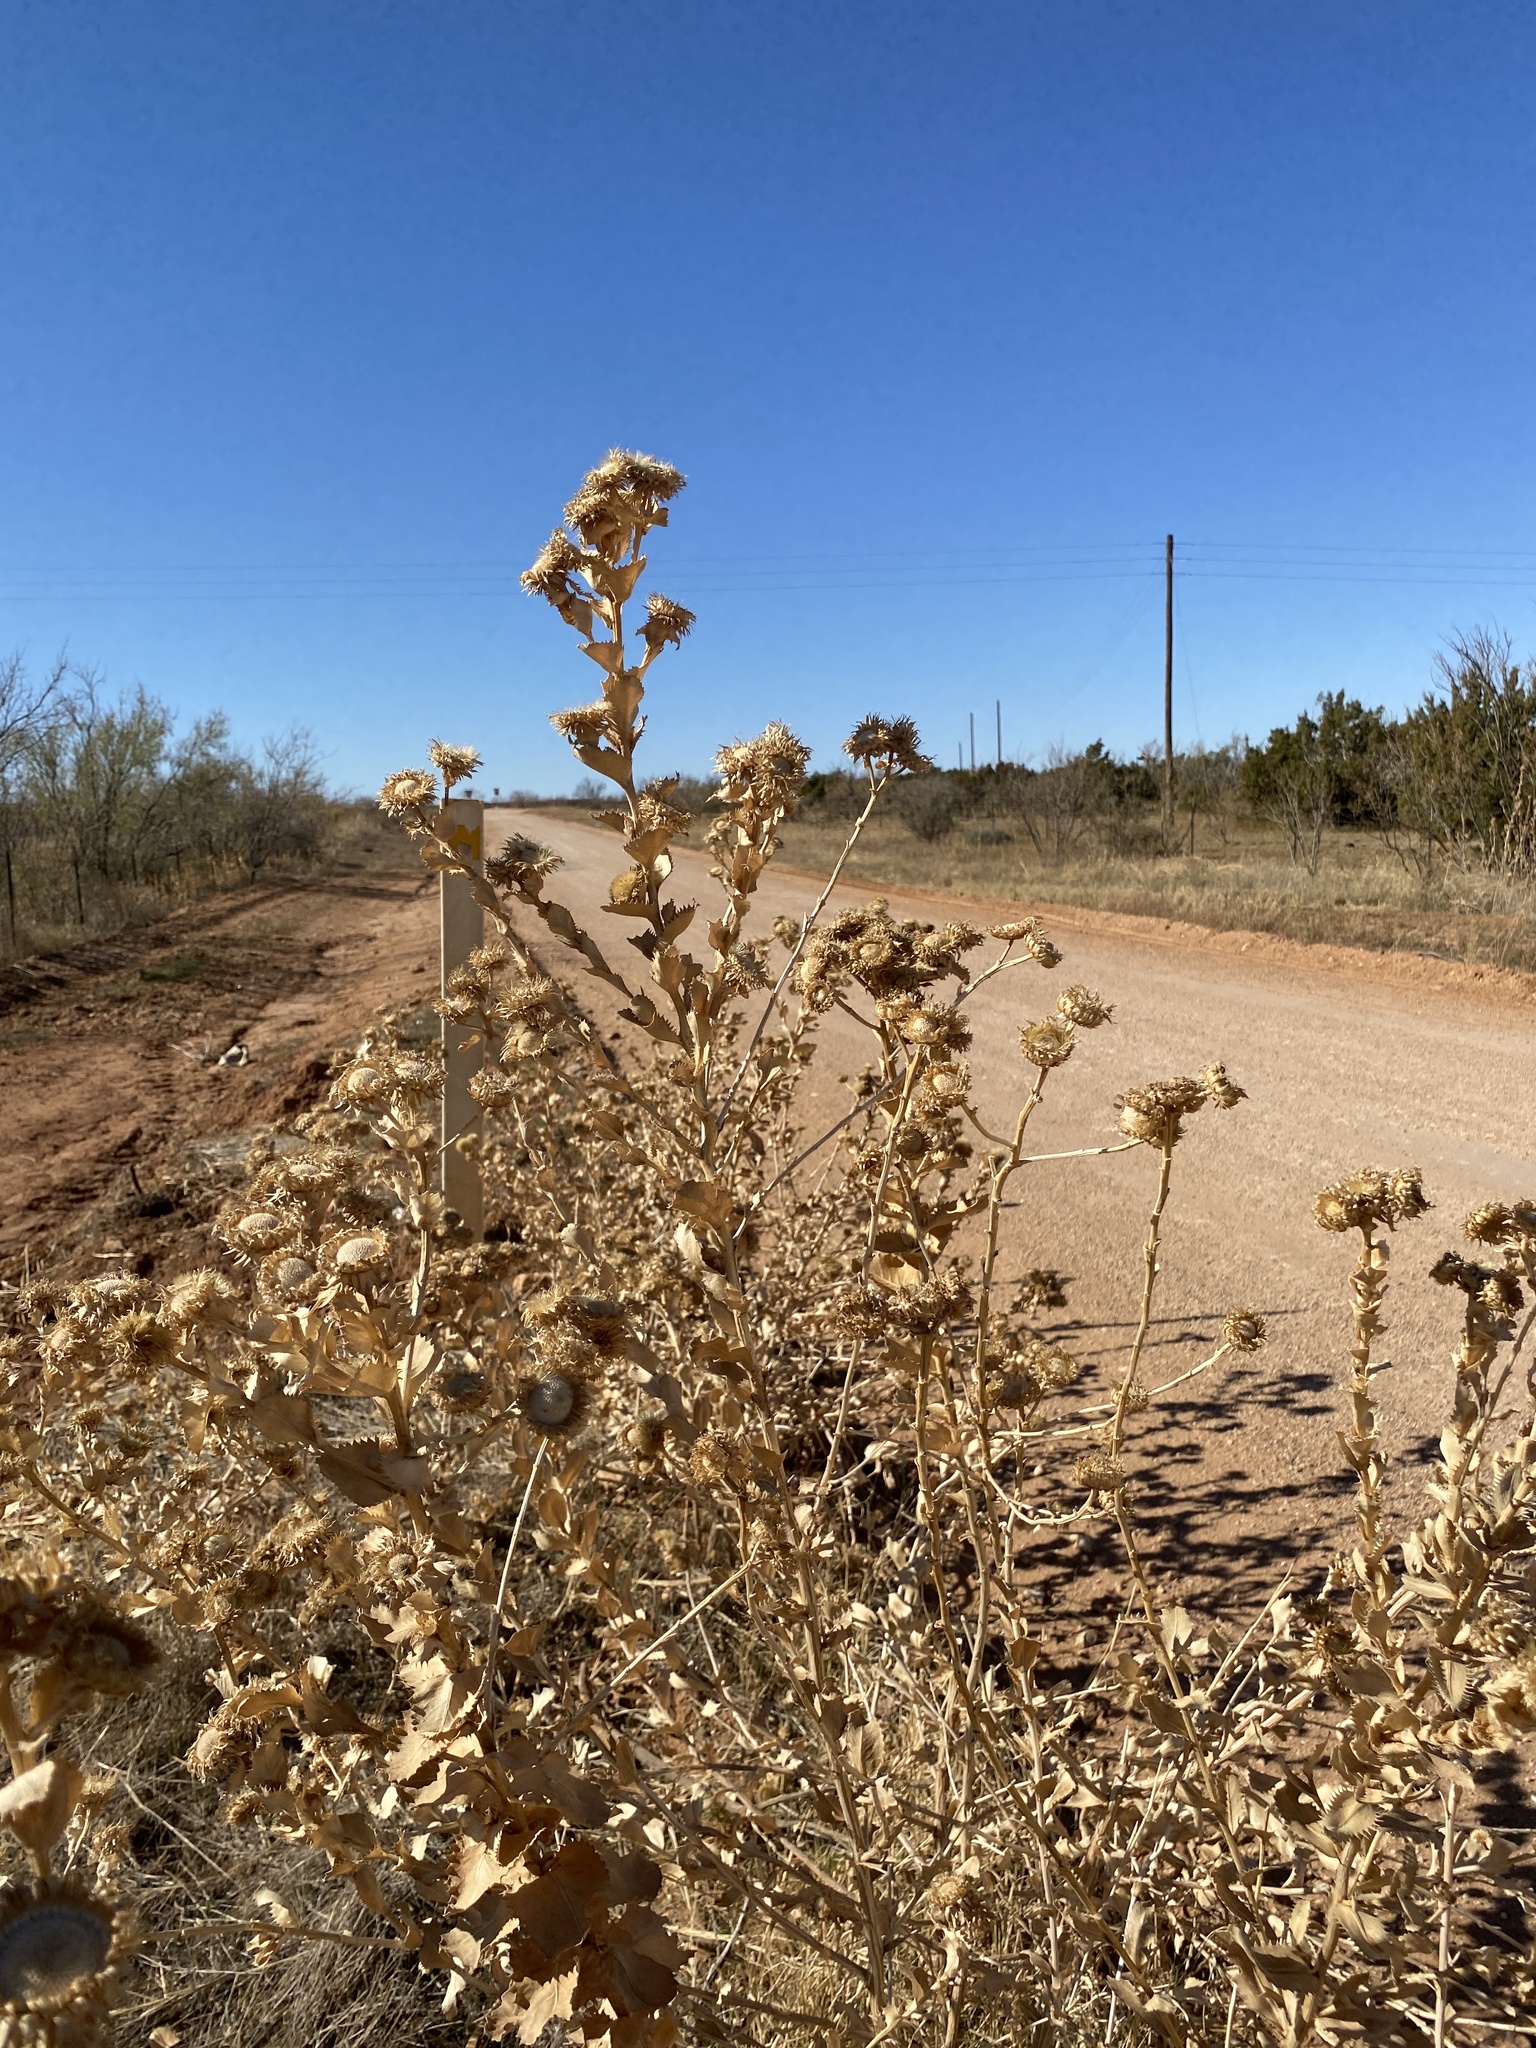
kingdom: Plantae
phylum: Tracheophyta
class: Magnoliopsida
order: Asterales
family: Asteraceae
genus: Grindelia
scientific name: Grindelia ciliata
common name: Goldenweed
